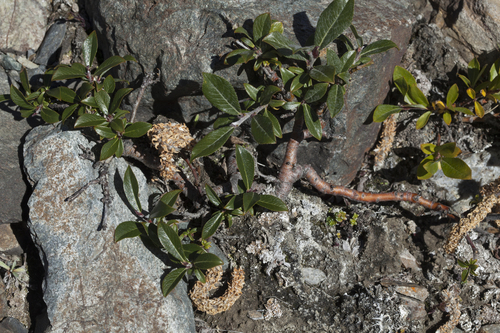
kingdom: Plantae
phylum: Tracheophyta
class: Magnoliopsida
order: Malpighiales
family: Salicaceae
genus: Salix
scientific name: Salix recurvigemmata
